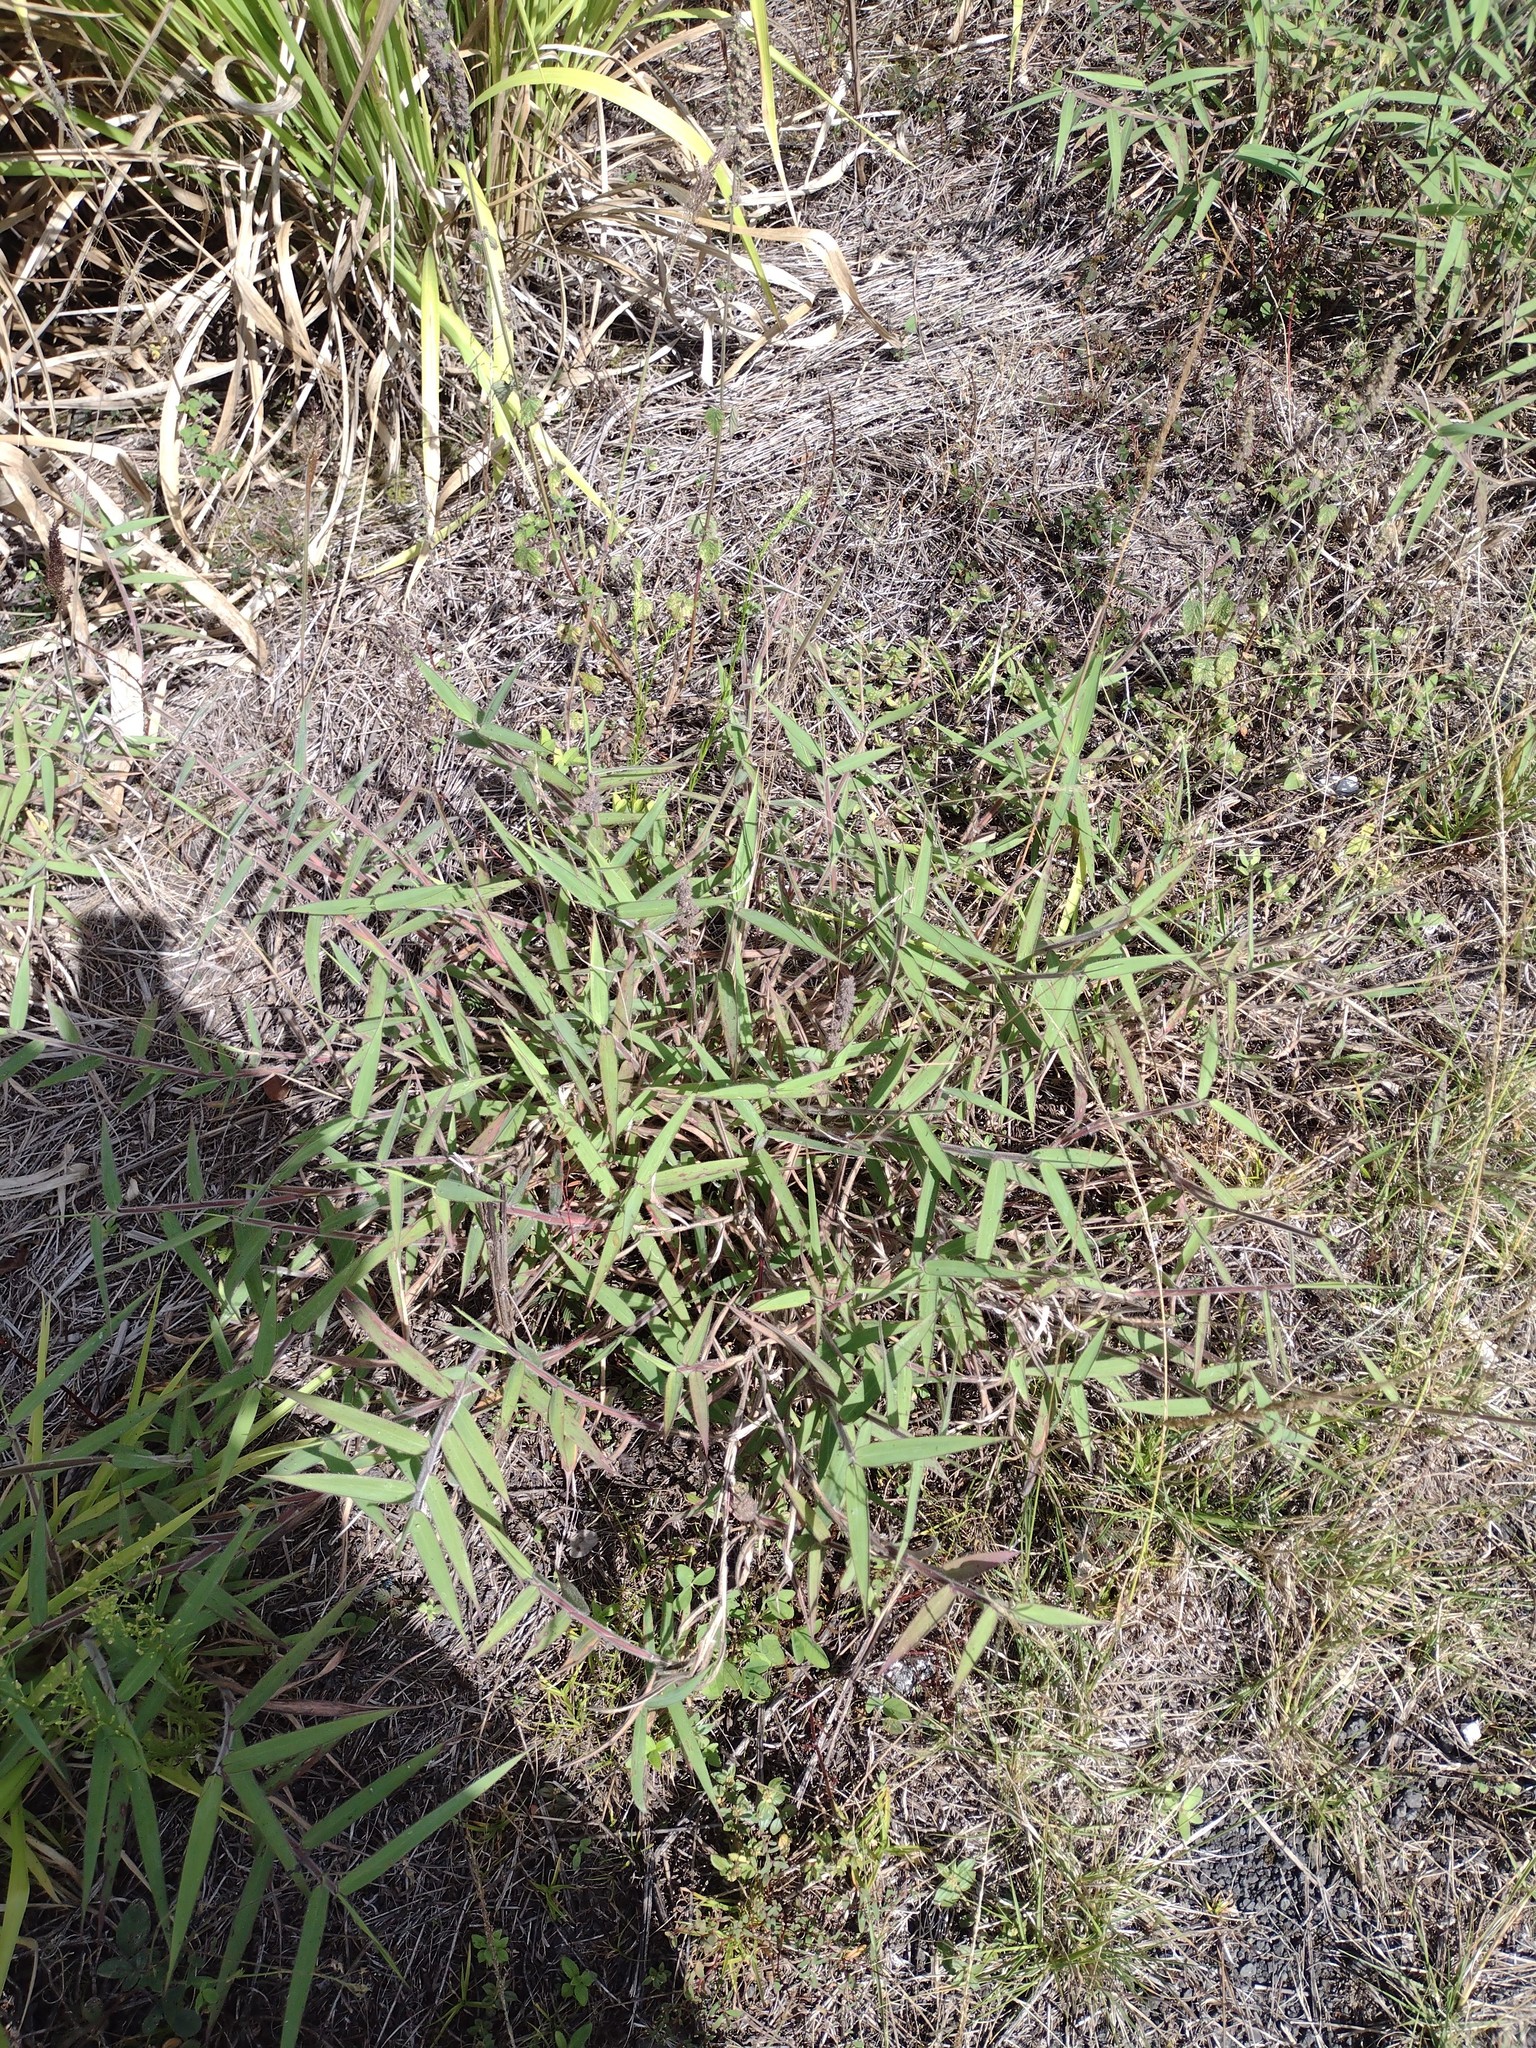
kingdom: Plantae
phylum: Tracheophyta
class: Liliopsida
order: Poales
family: Poaceae
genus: Melinis
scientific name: Melinis minutiflora
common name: Molassesgrass
